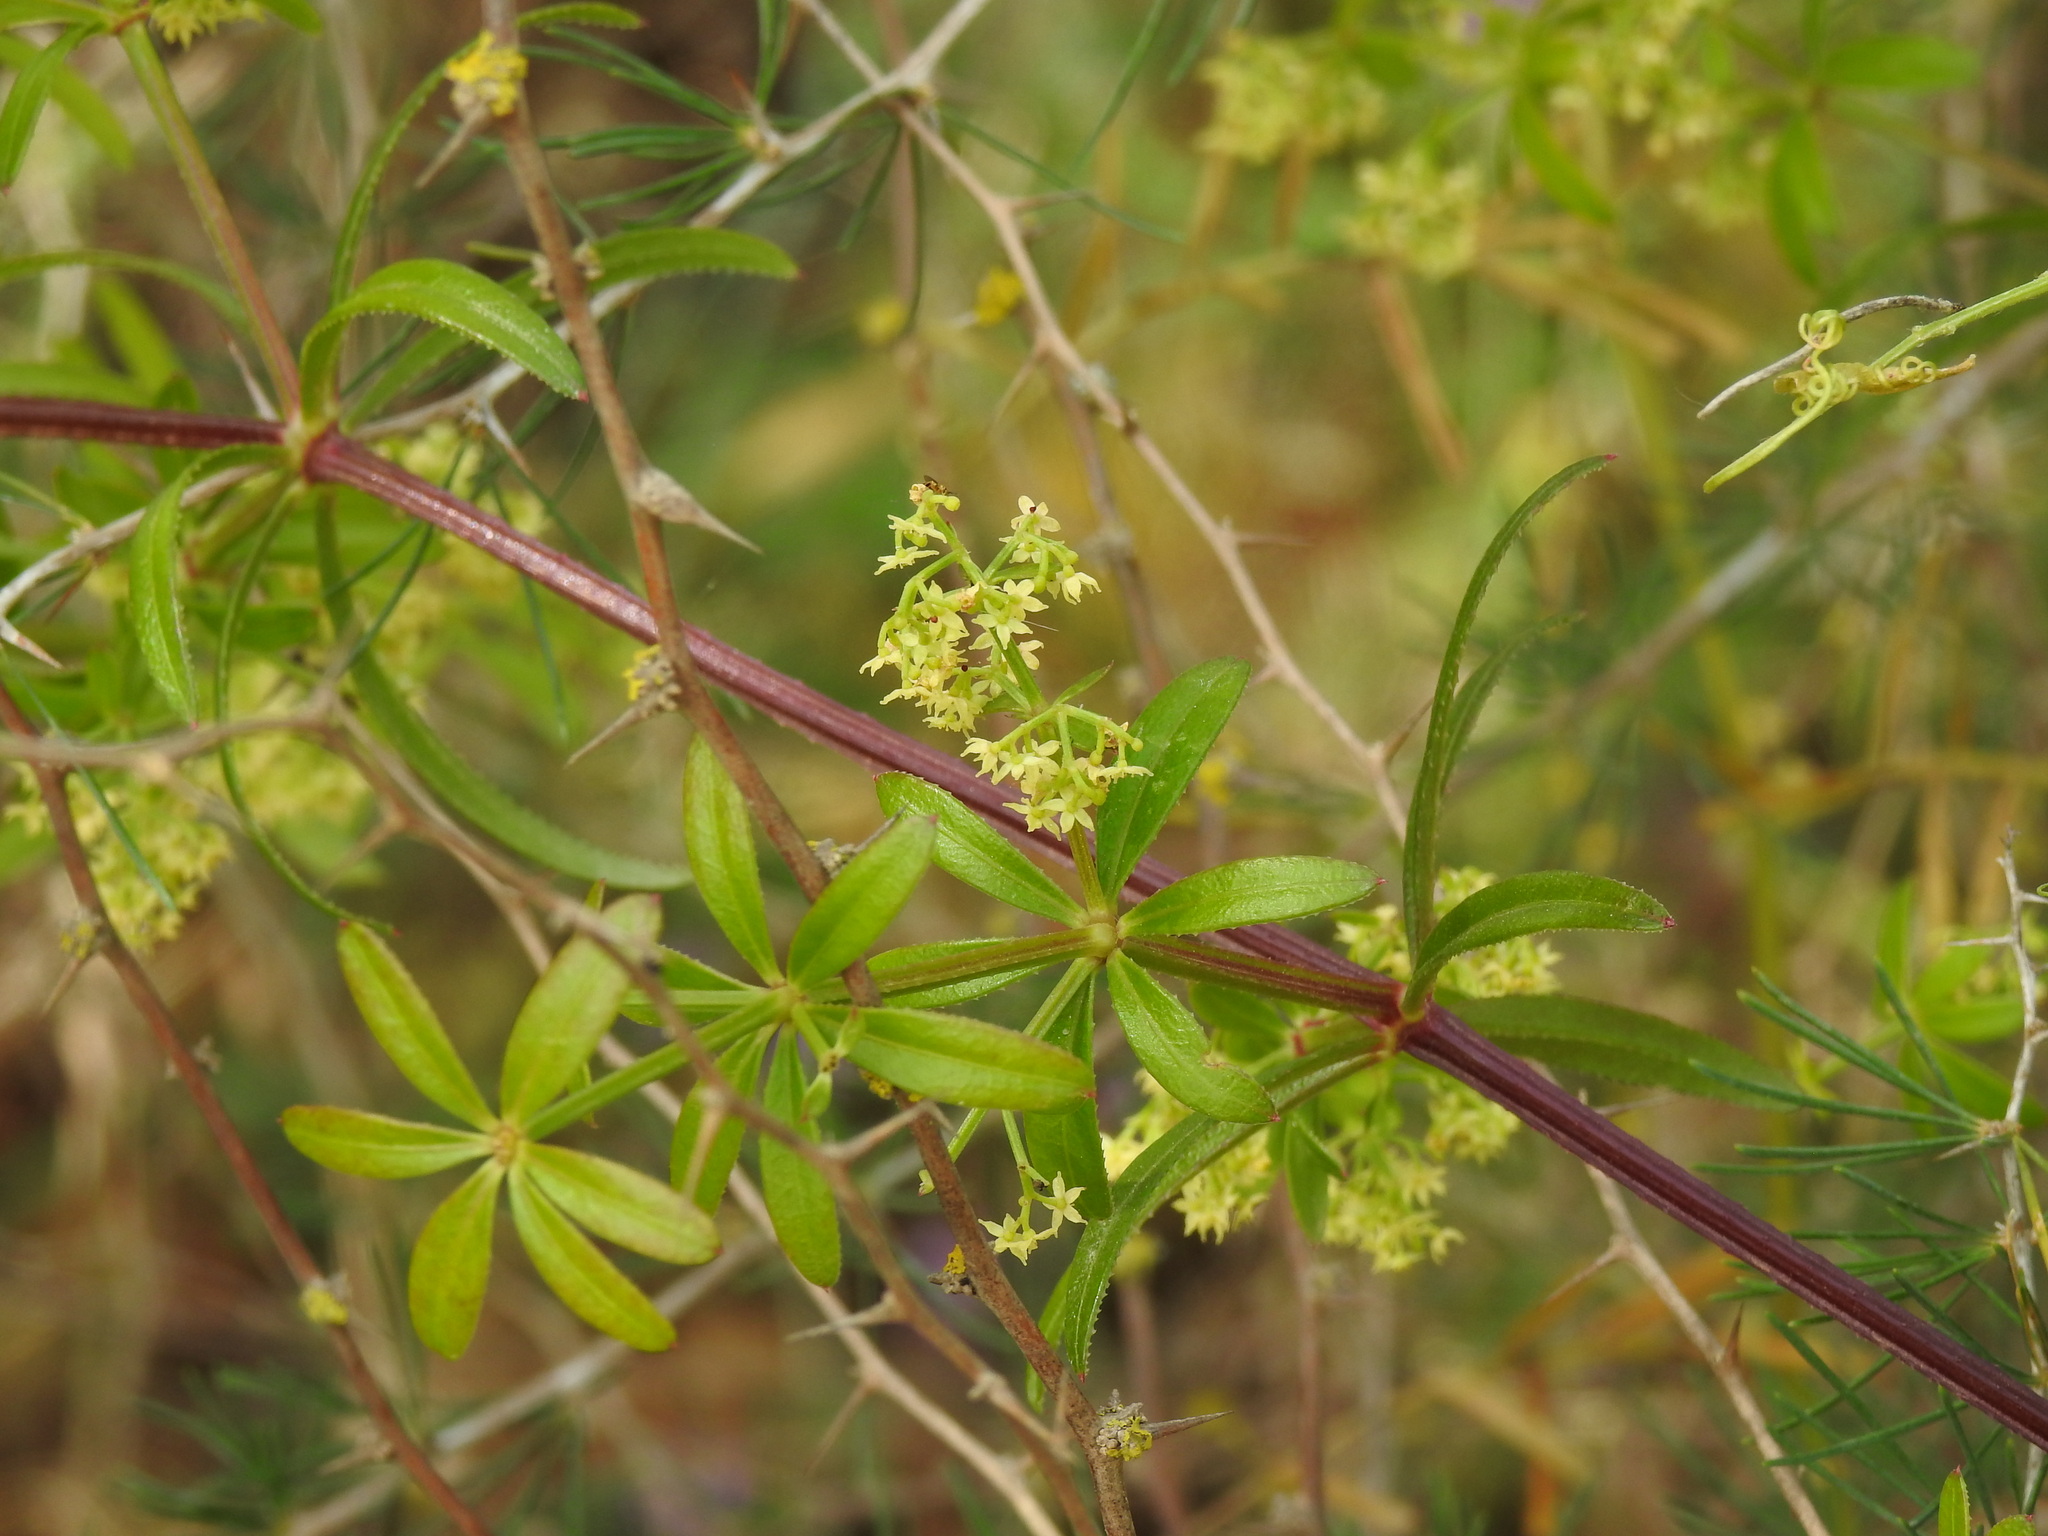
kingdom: Plantae
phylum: Tracheophyta
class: Magnoliopsida
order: Gentianales
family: Rubiaceae
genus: Rubia
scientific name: Rubia peregrina
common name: Wild madder
